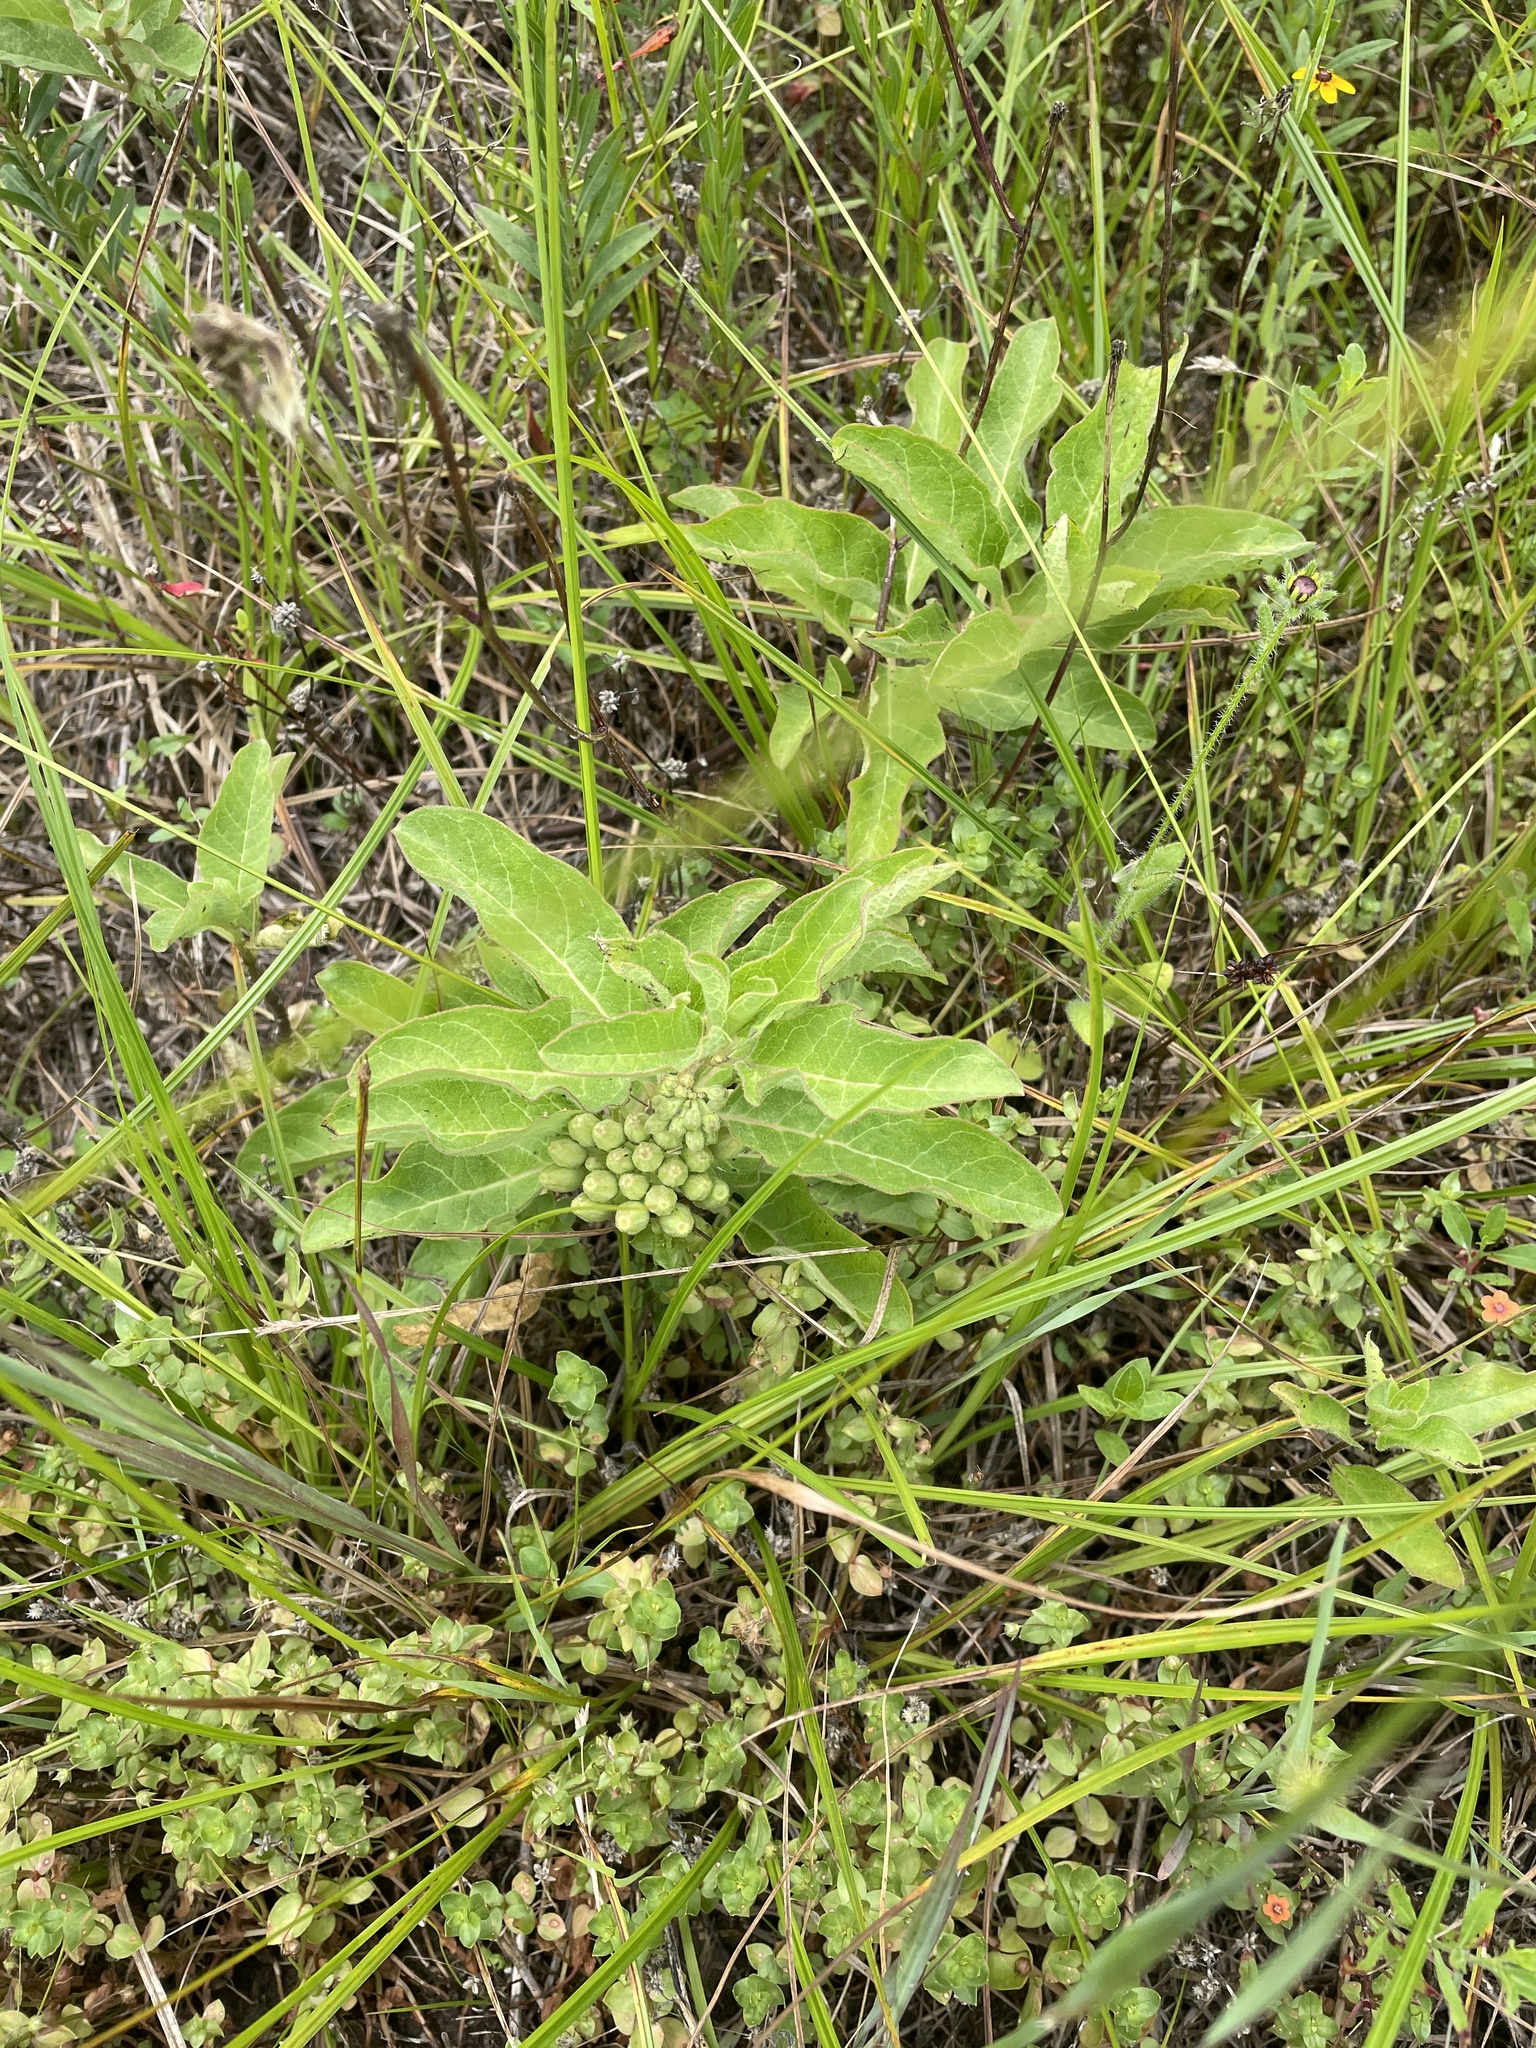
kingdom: Plantae
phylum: Tracheophyta
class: Magnoliopsida
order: Gentianales
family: Apocynaceae
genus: Asclepias
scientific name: Asclepias oenotheroides
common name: Zizotes milkweed
